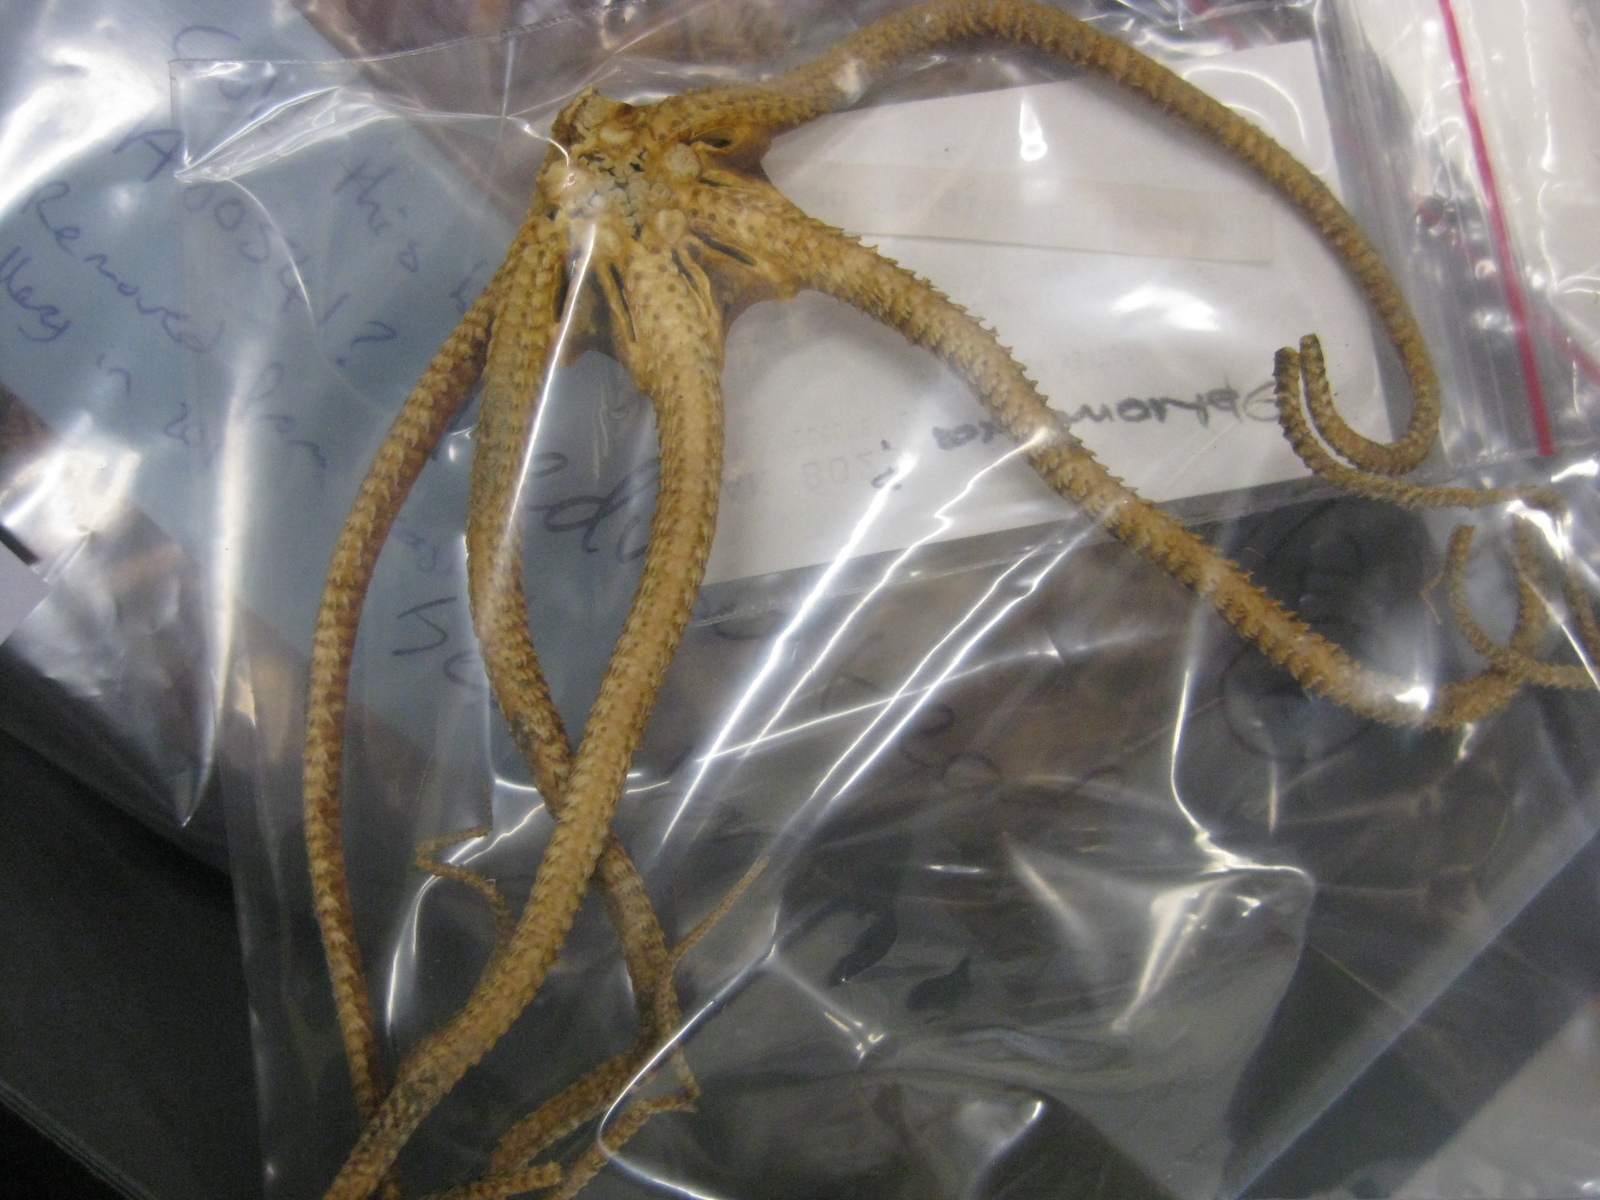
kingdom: Animalia
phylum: Echinodermata
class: Ophiuroidea
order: Euryalida
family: Gorgonocephalidae
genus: Astrothorax
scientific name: Astrothorax waitei
